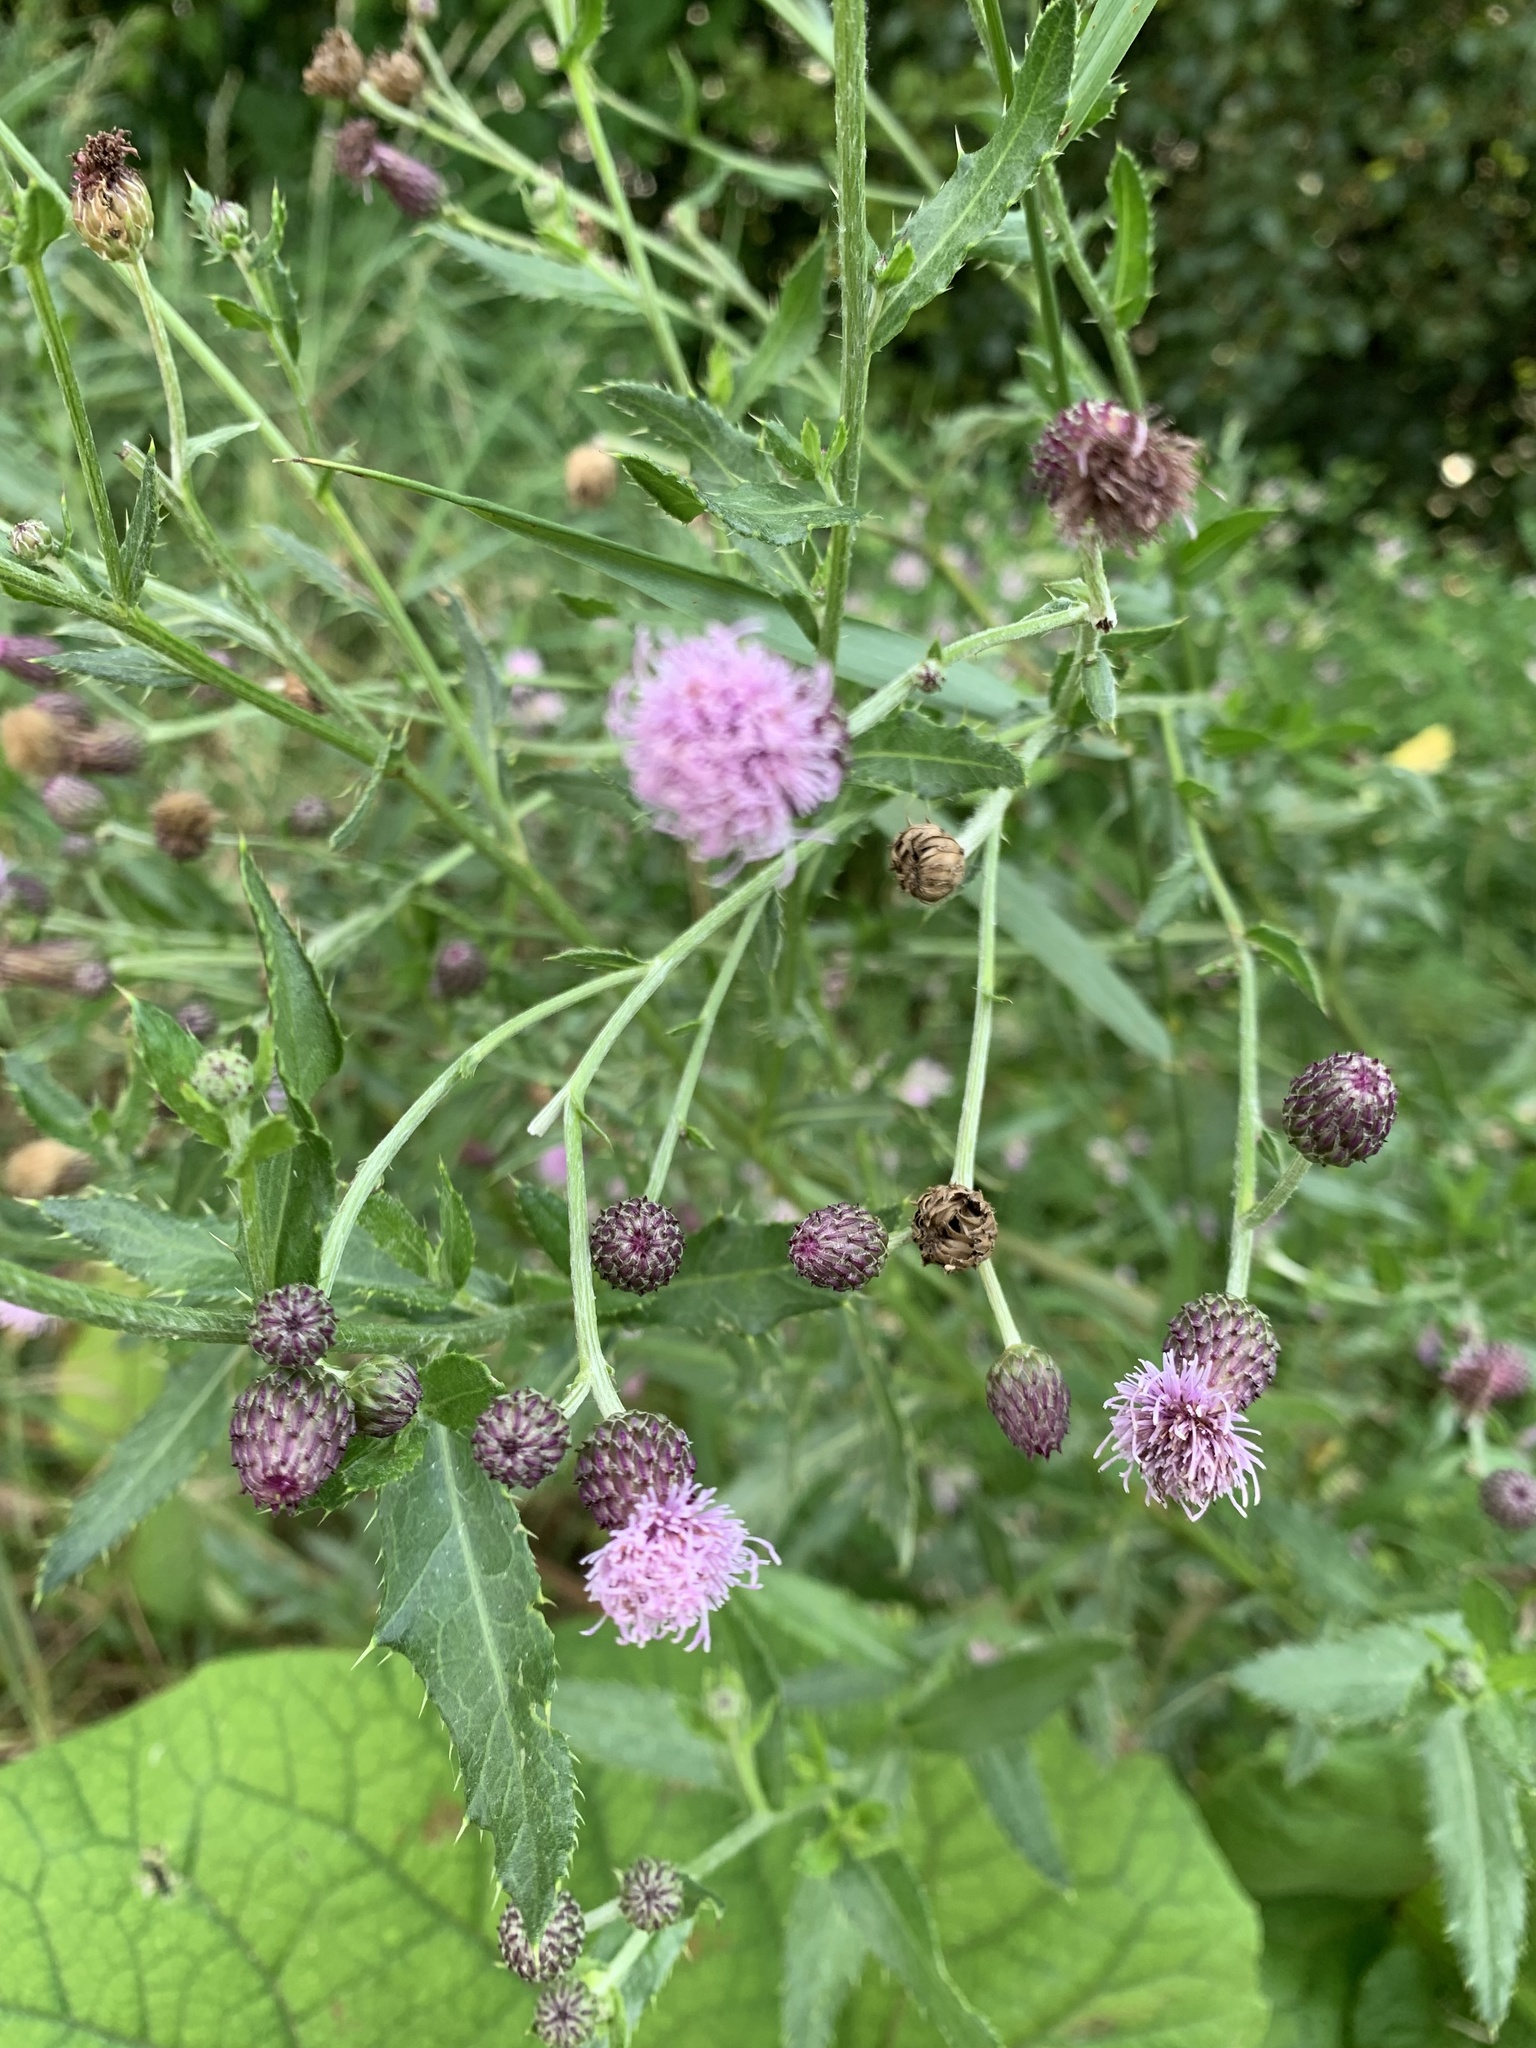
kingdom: Plantae
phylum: Tracheophyta
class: Magnoliopsida
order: Asterales
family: Asteraceae
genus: Cirsium
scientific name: Cirsium arvense
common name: Creeping thistle
